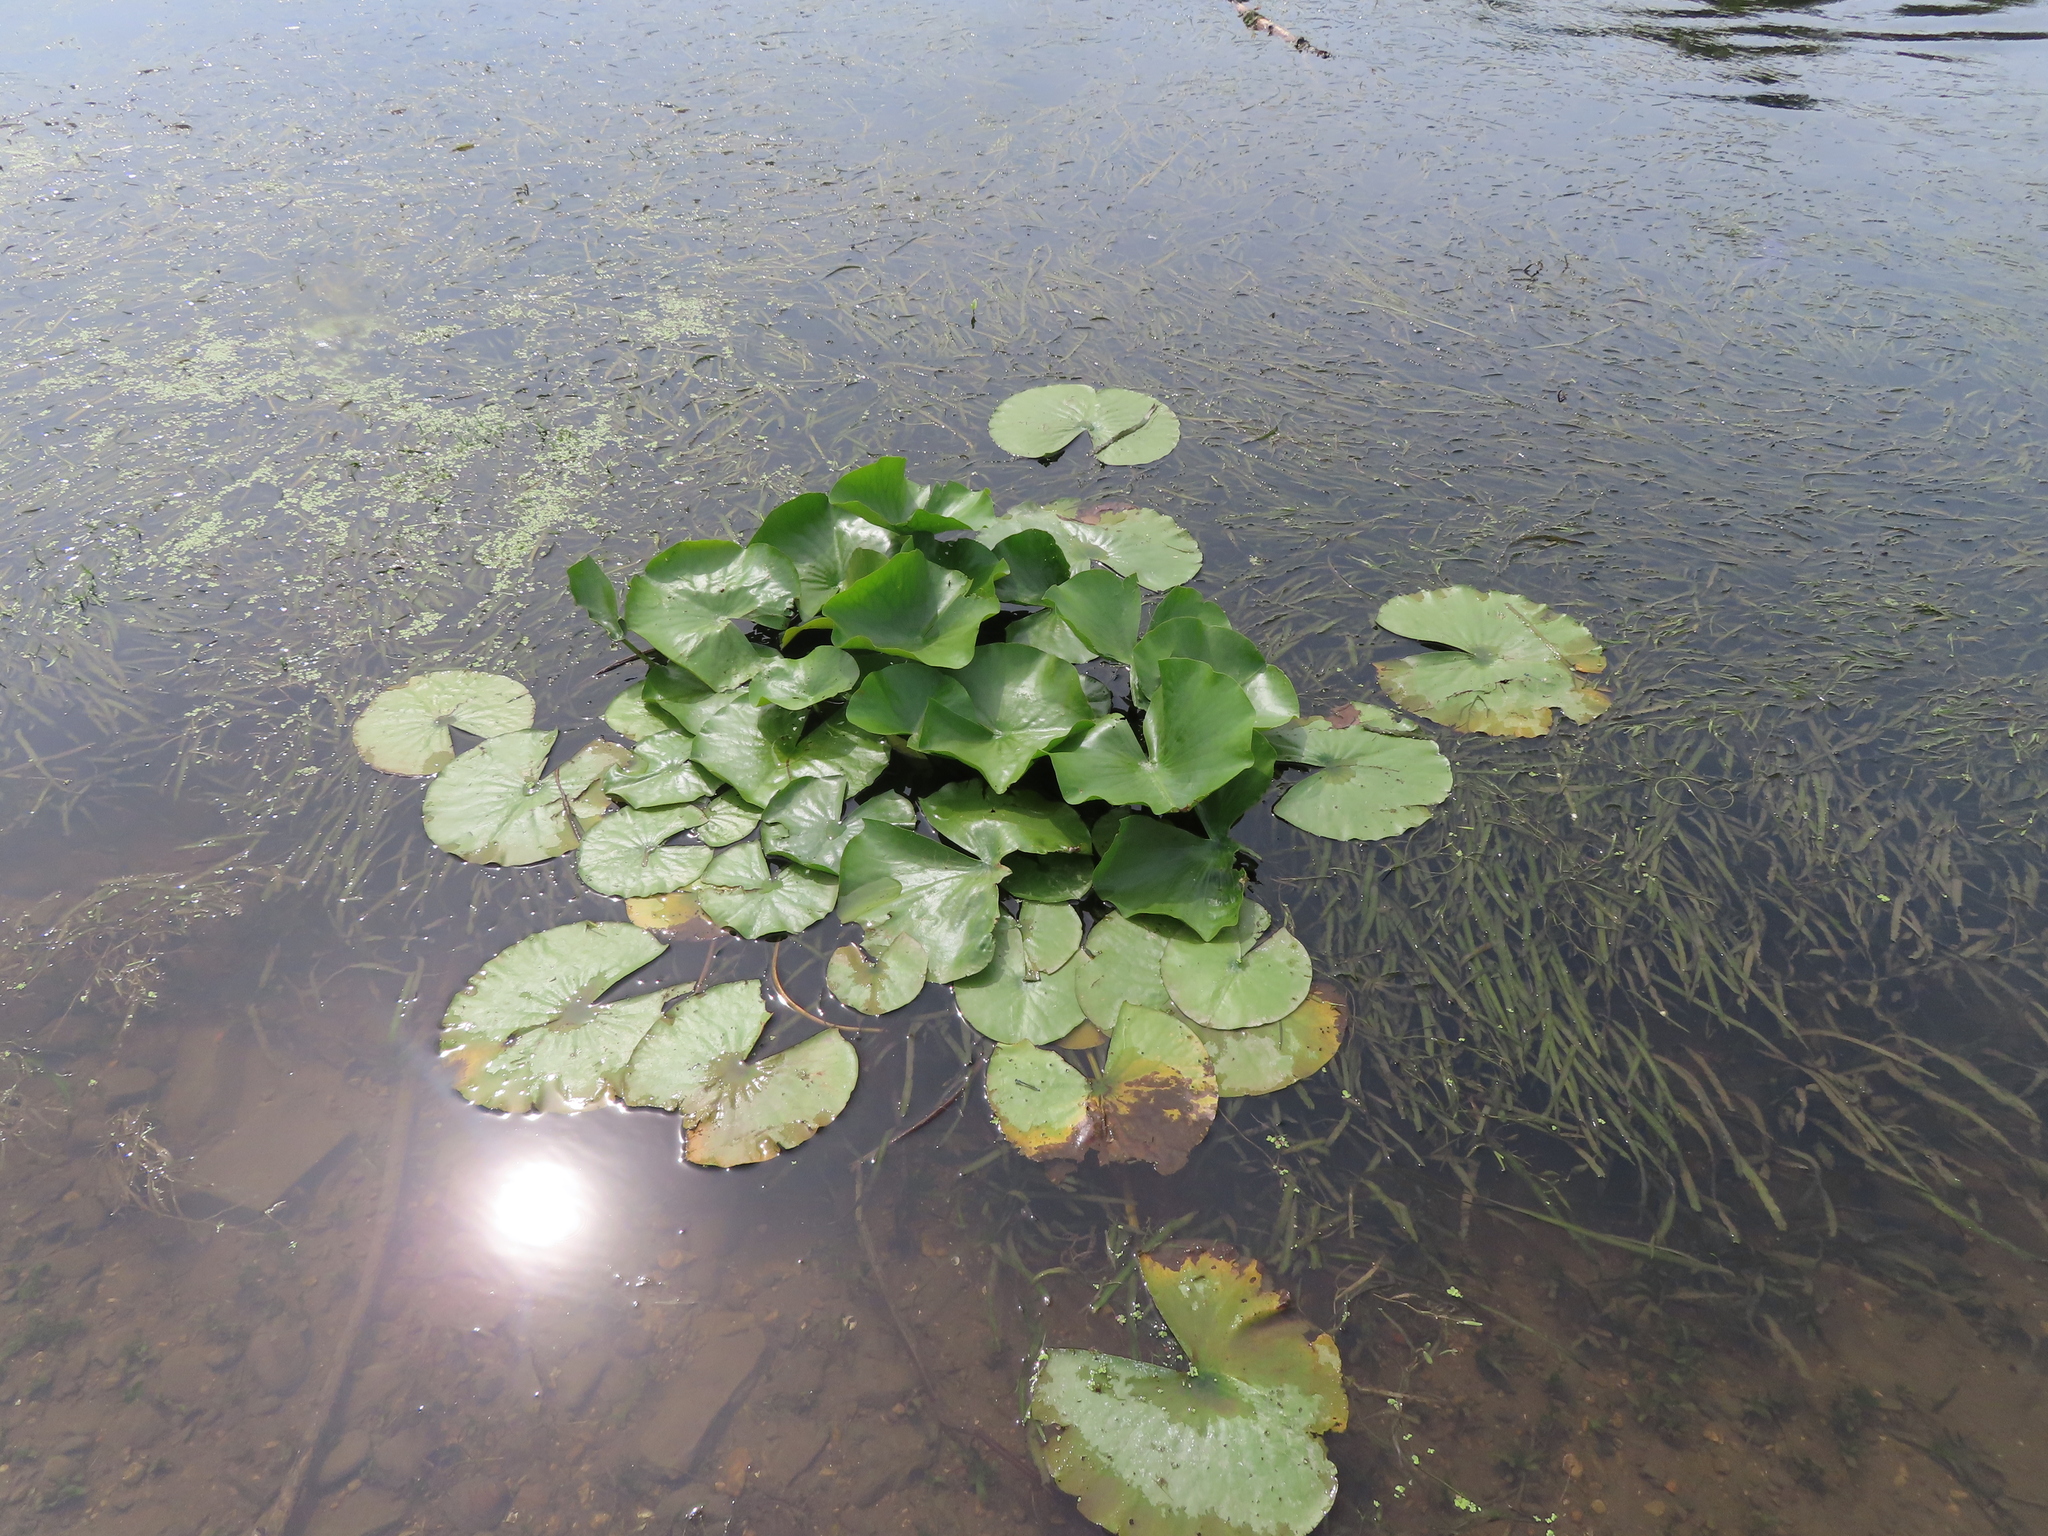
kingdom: Plantae
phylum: Tracheophyta
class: Magnoliopsida
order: Nymphaeales
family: Nymphaeaceae
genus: Nymphaea
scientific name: Nymphaea odorata
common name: Fragrant water-lily
